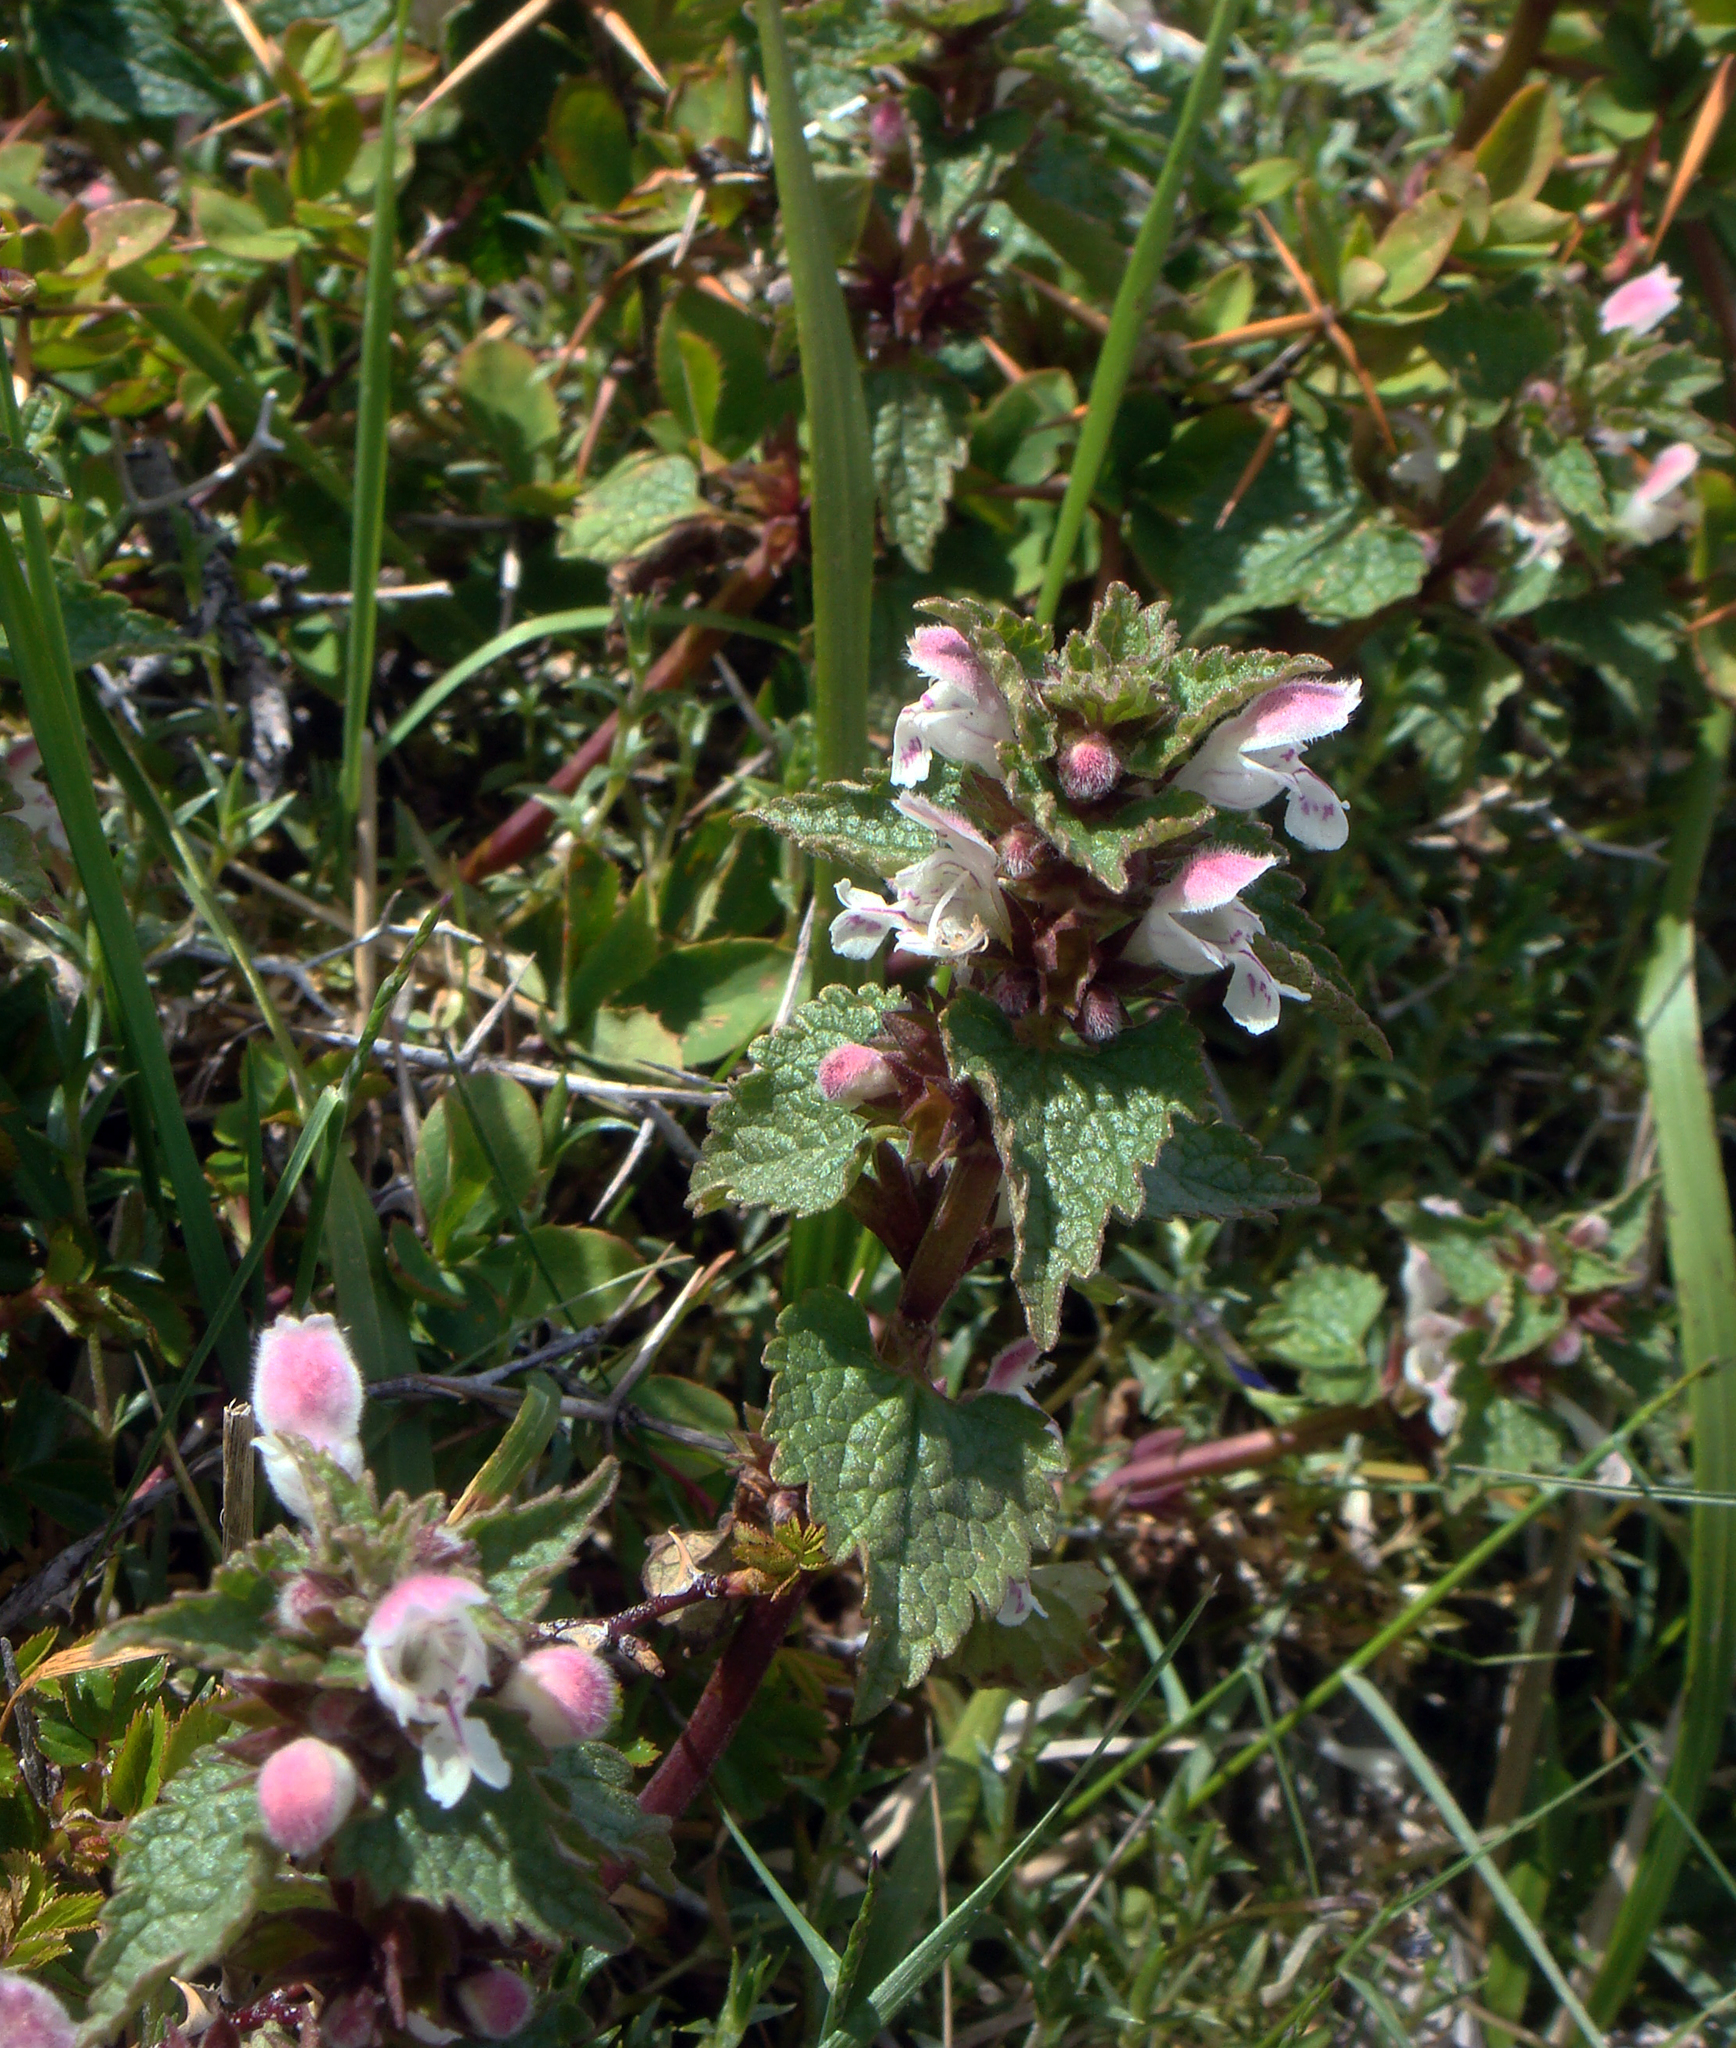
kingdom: Plantae
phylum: Tracheophyta
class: Magnoliopsida
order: Lamiales
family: Lamiaceae
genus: Lamium
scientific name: Lamium garganicum
